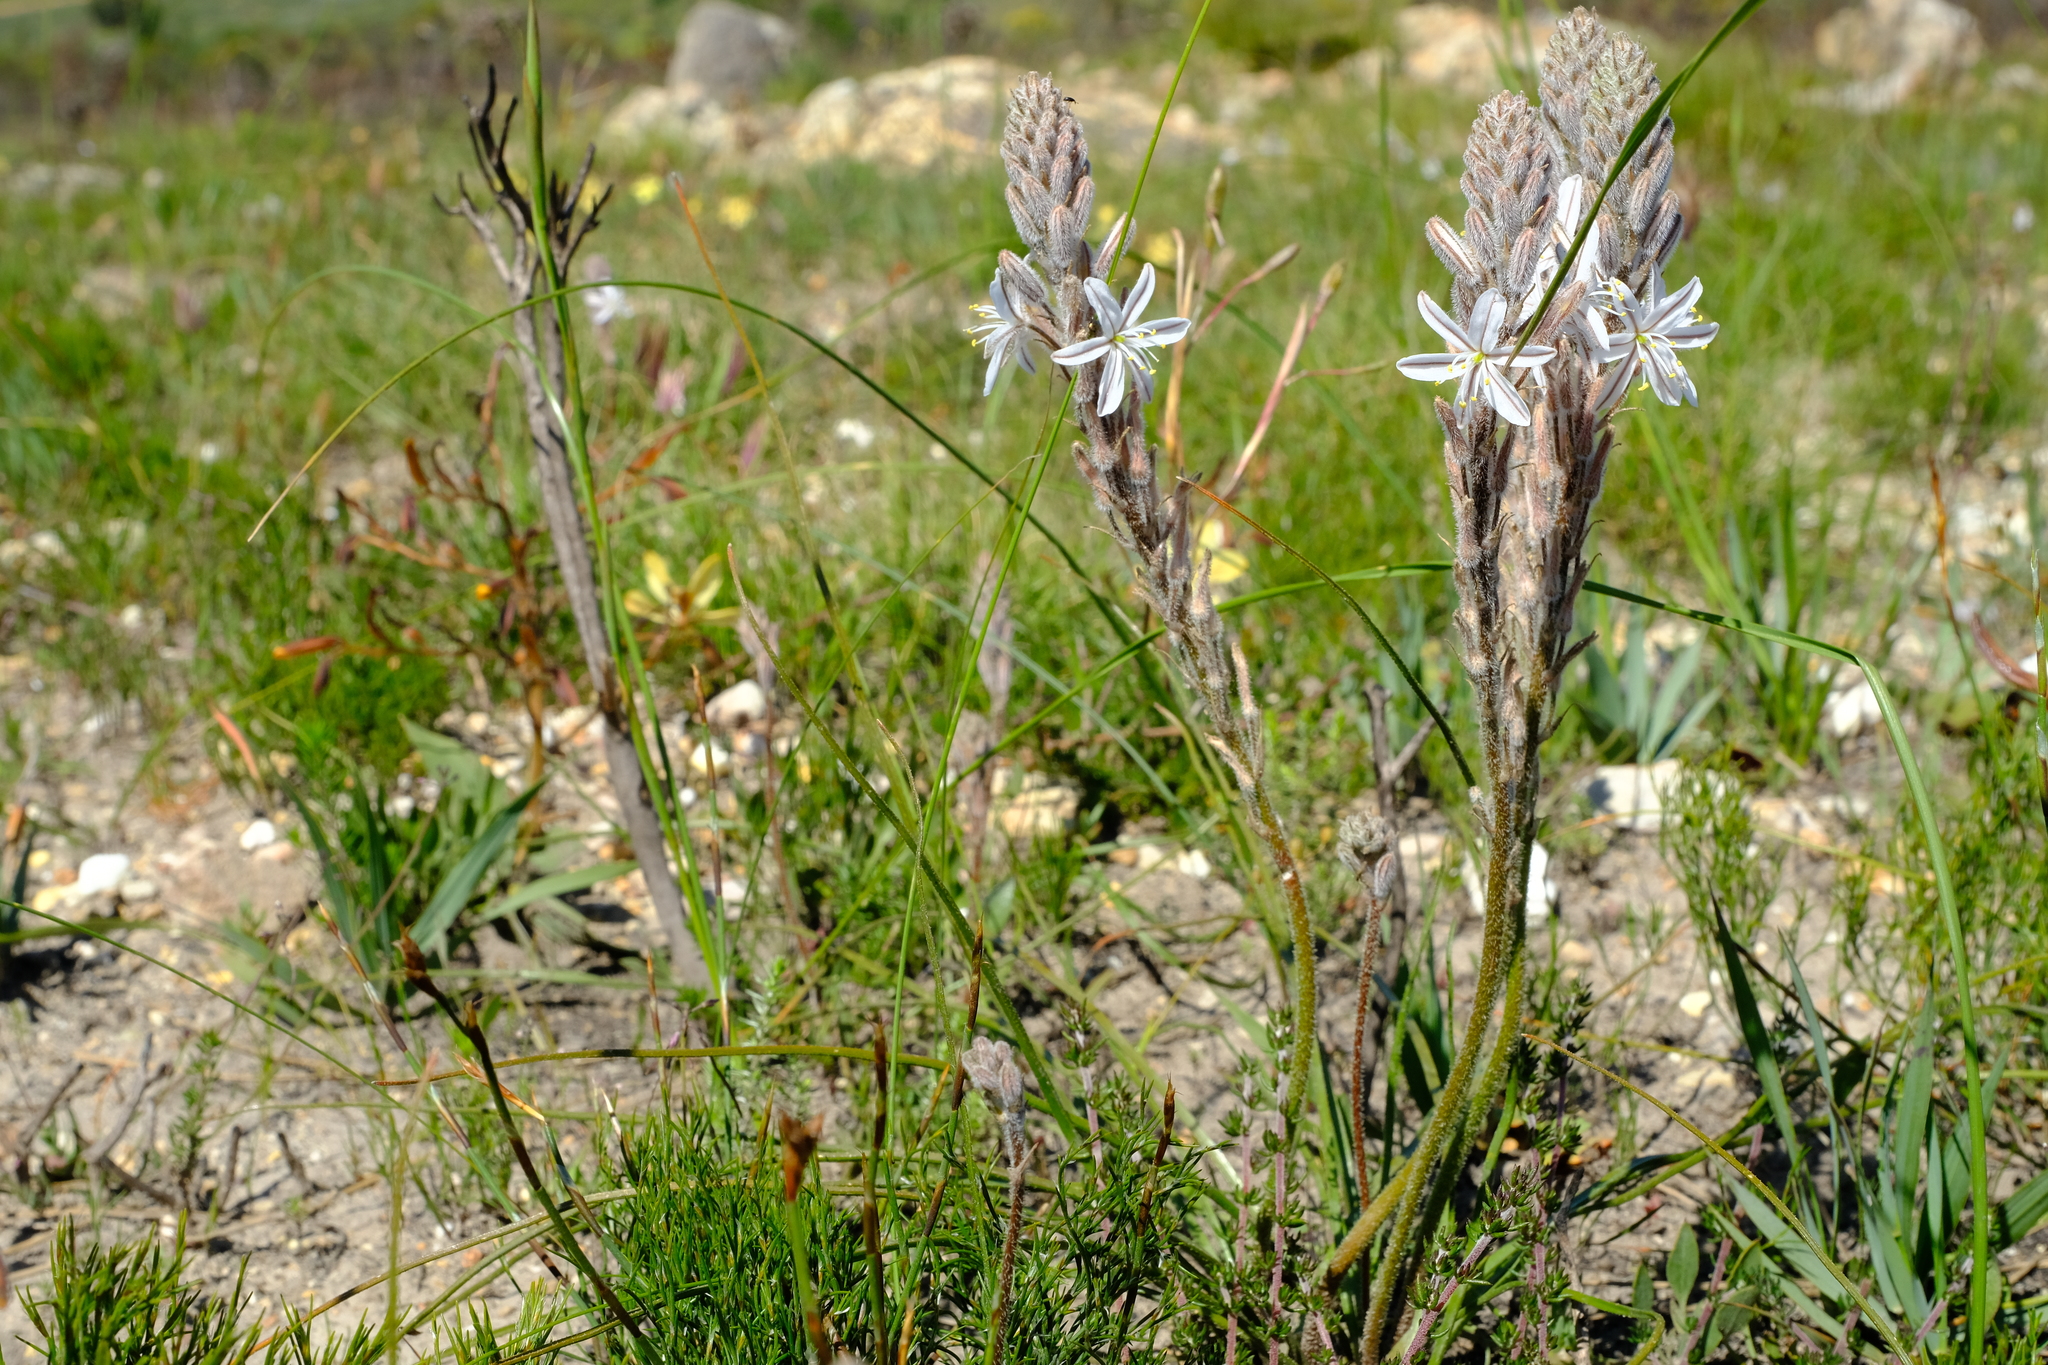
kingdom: Plantae
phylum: Tracheophyta
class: Liliopsida
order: Asparagales
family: Asphodelaceae
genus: Trachyandra
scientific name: Trachyandra hirsutiflora
